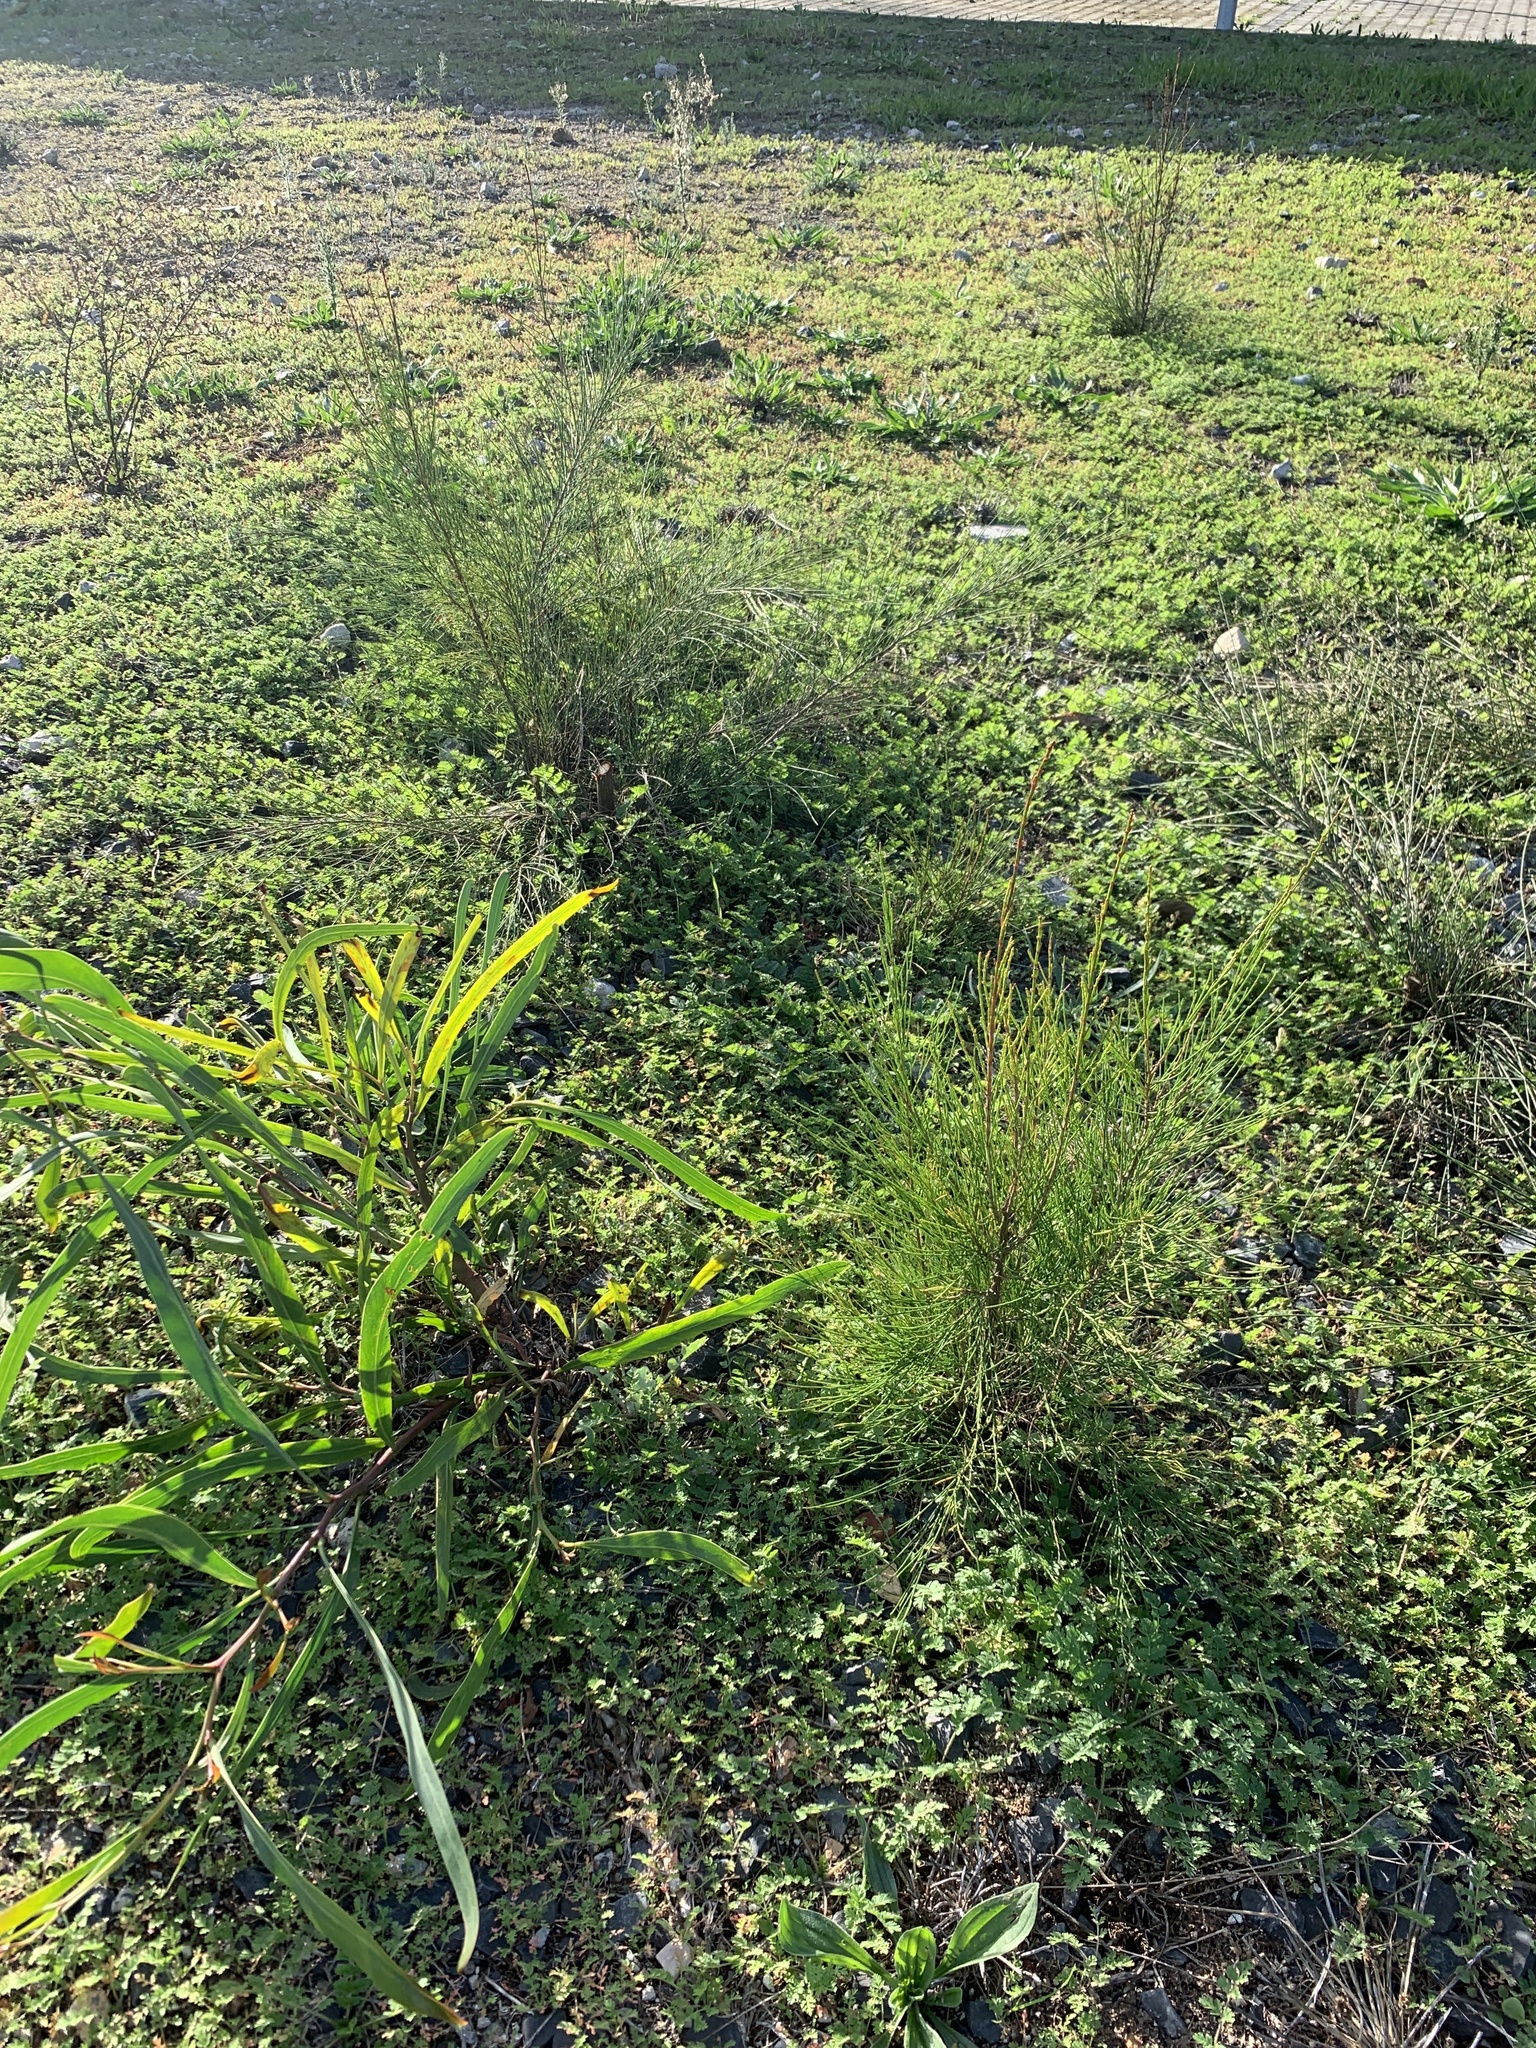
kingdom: Plantae
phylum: Tracheophyta
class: Magnoliopsida
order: Fagales
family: Casuarinaceae
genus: Casuarina
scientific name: Casuarina cunninghamiana
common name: River sheoak
